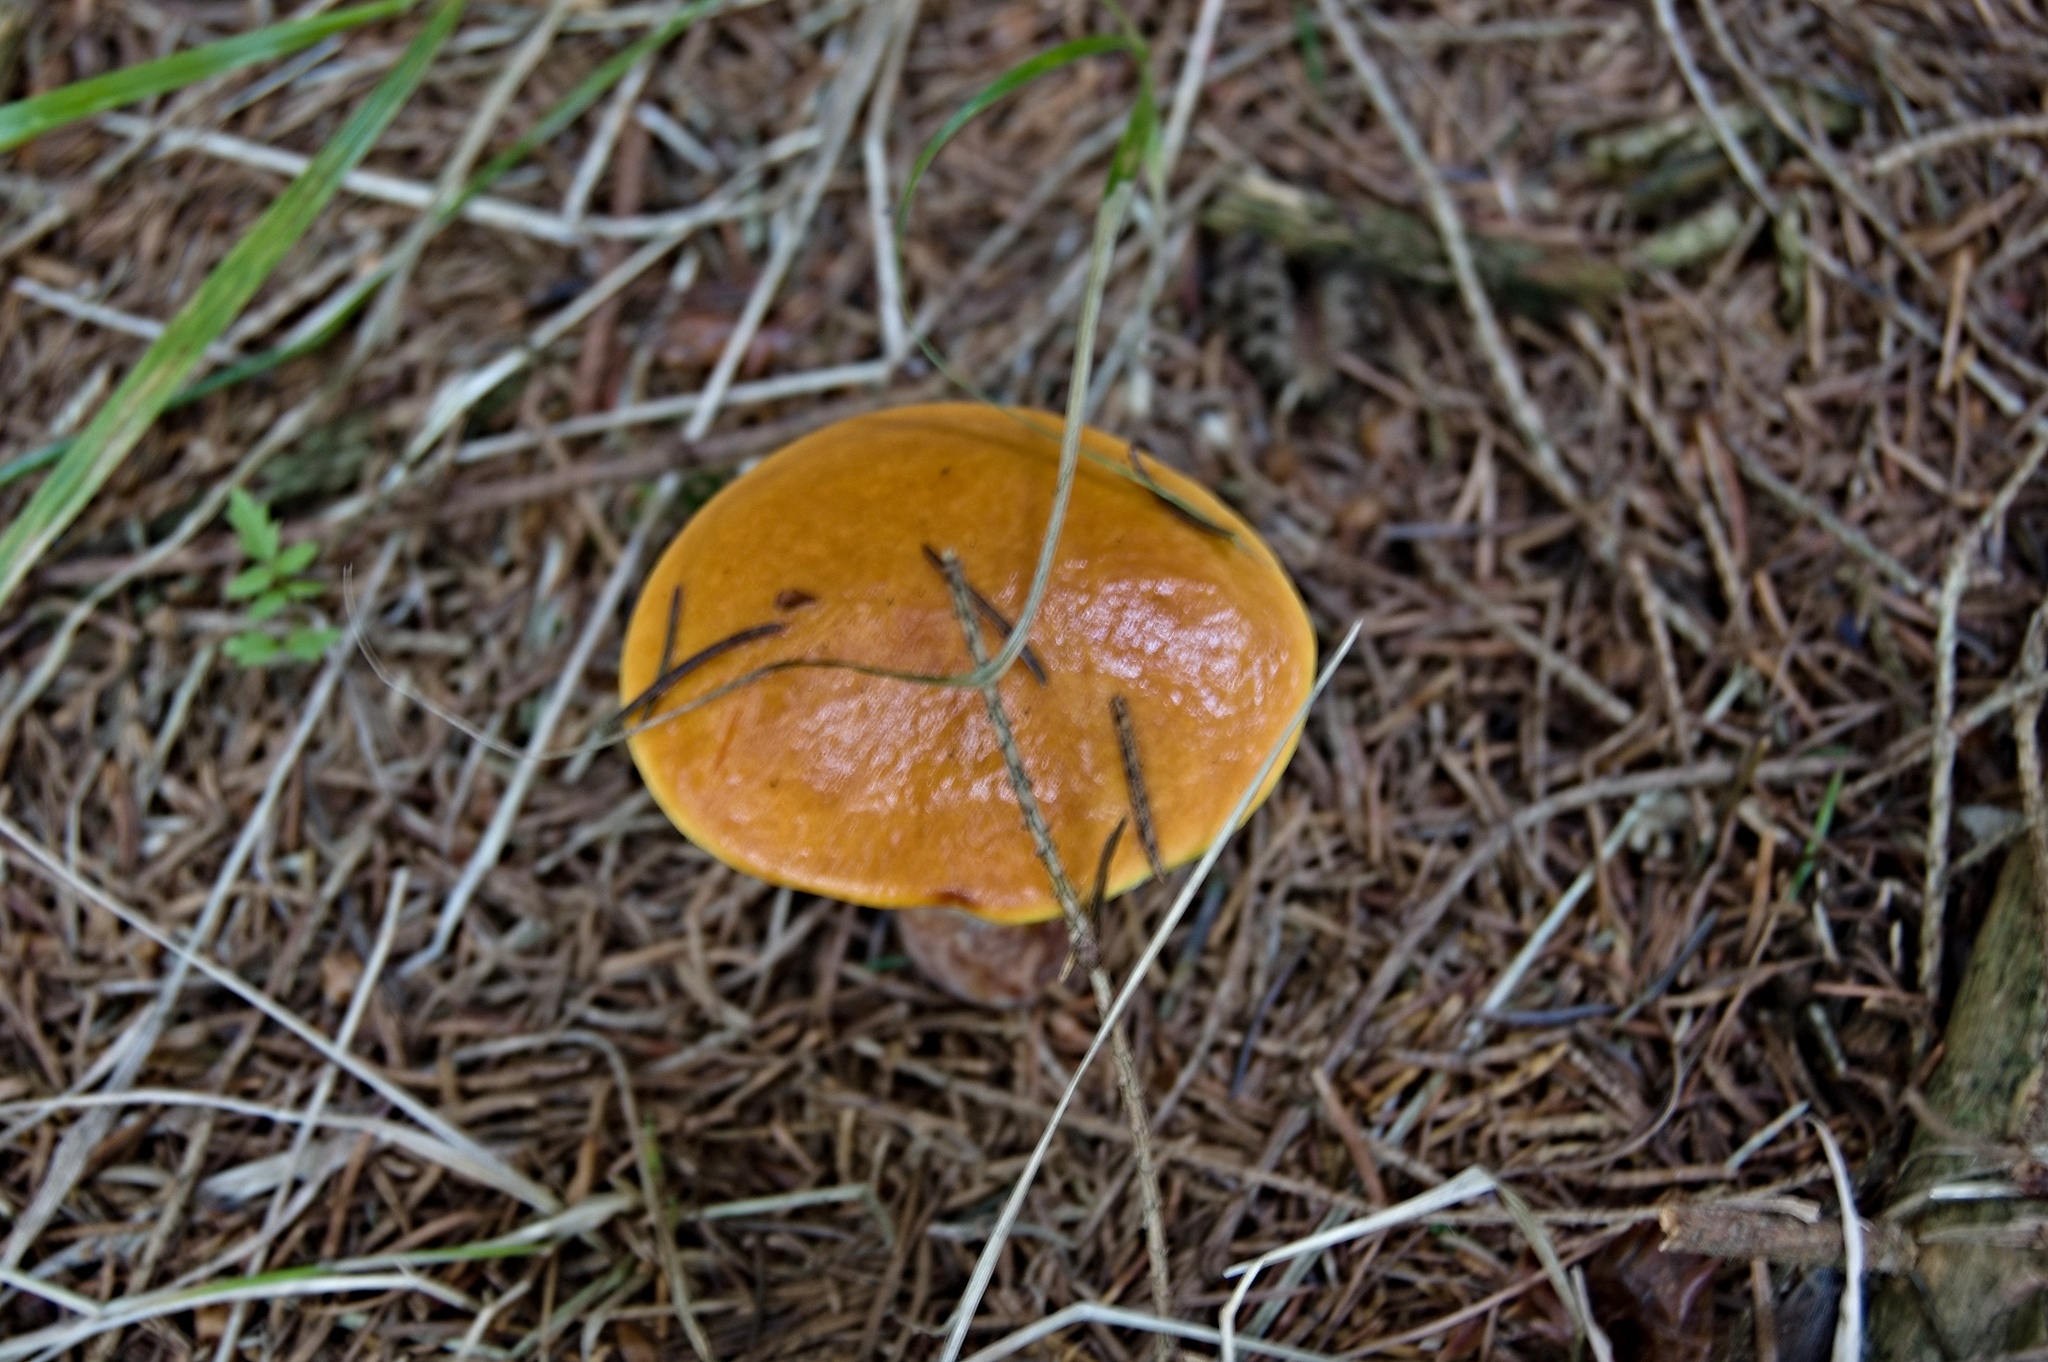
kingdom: Fungi
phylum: Basidiomycota
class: Agaricomycetes
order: Boletales
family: Suillaceae
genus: Suillus
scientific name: Suillus grevillei
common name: Larch bolete
